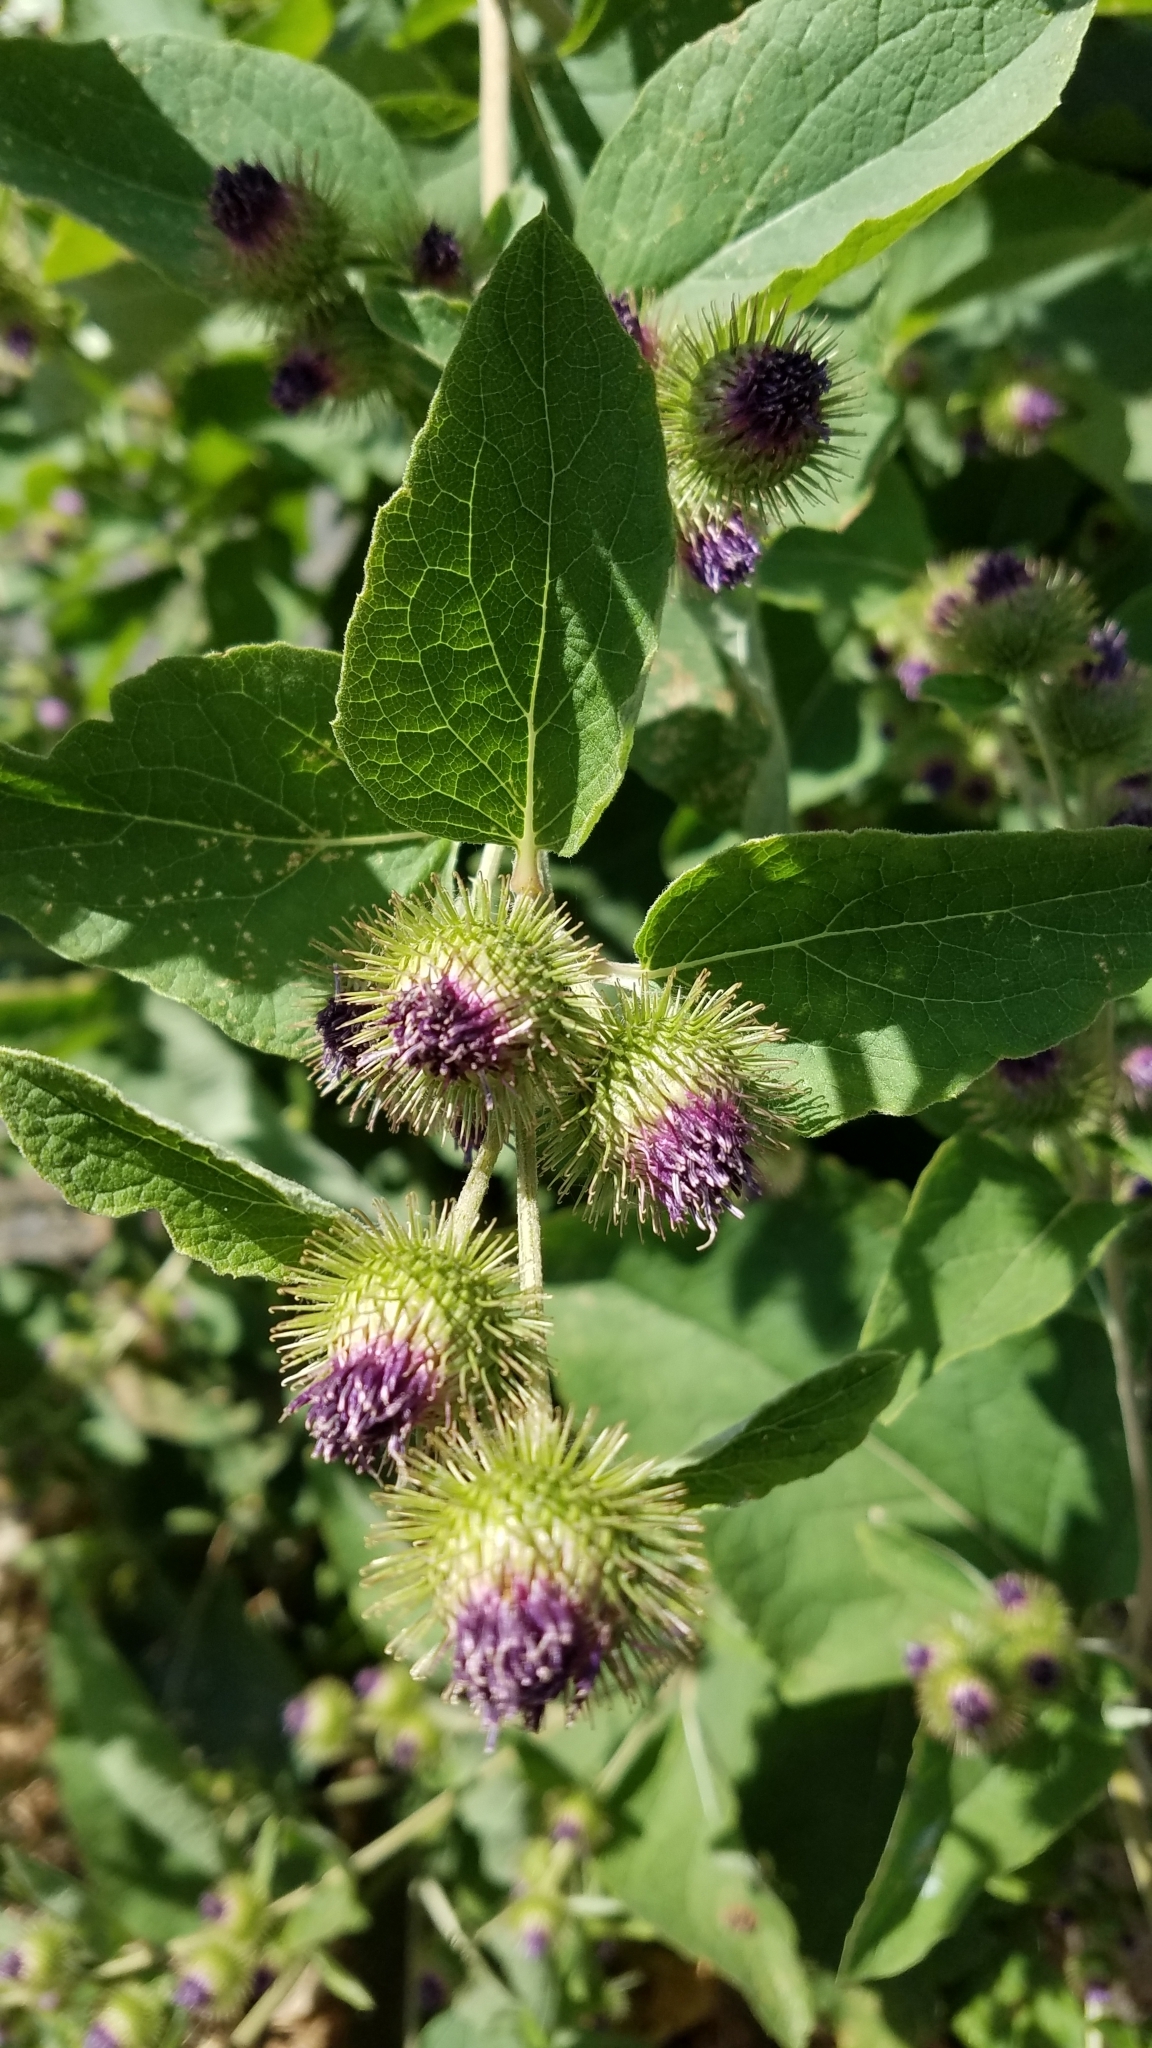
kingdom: Plantae
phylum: Tracheophyta
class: Magnoliopsida
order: Asterales
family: Asteraceae
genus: Arctium
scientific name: Arctium minus
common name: Lesser burdock
